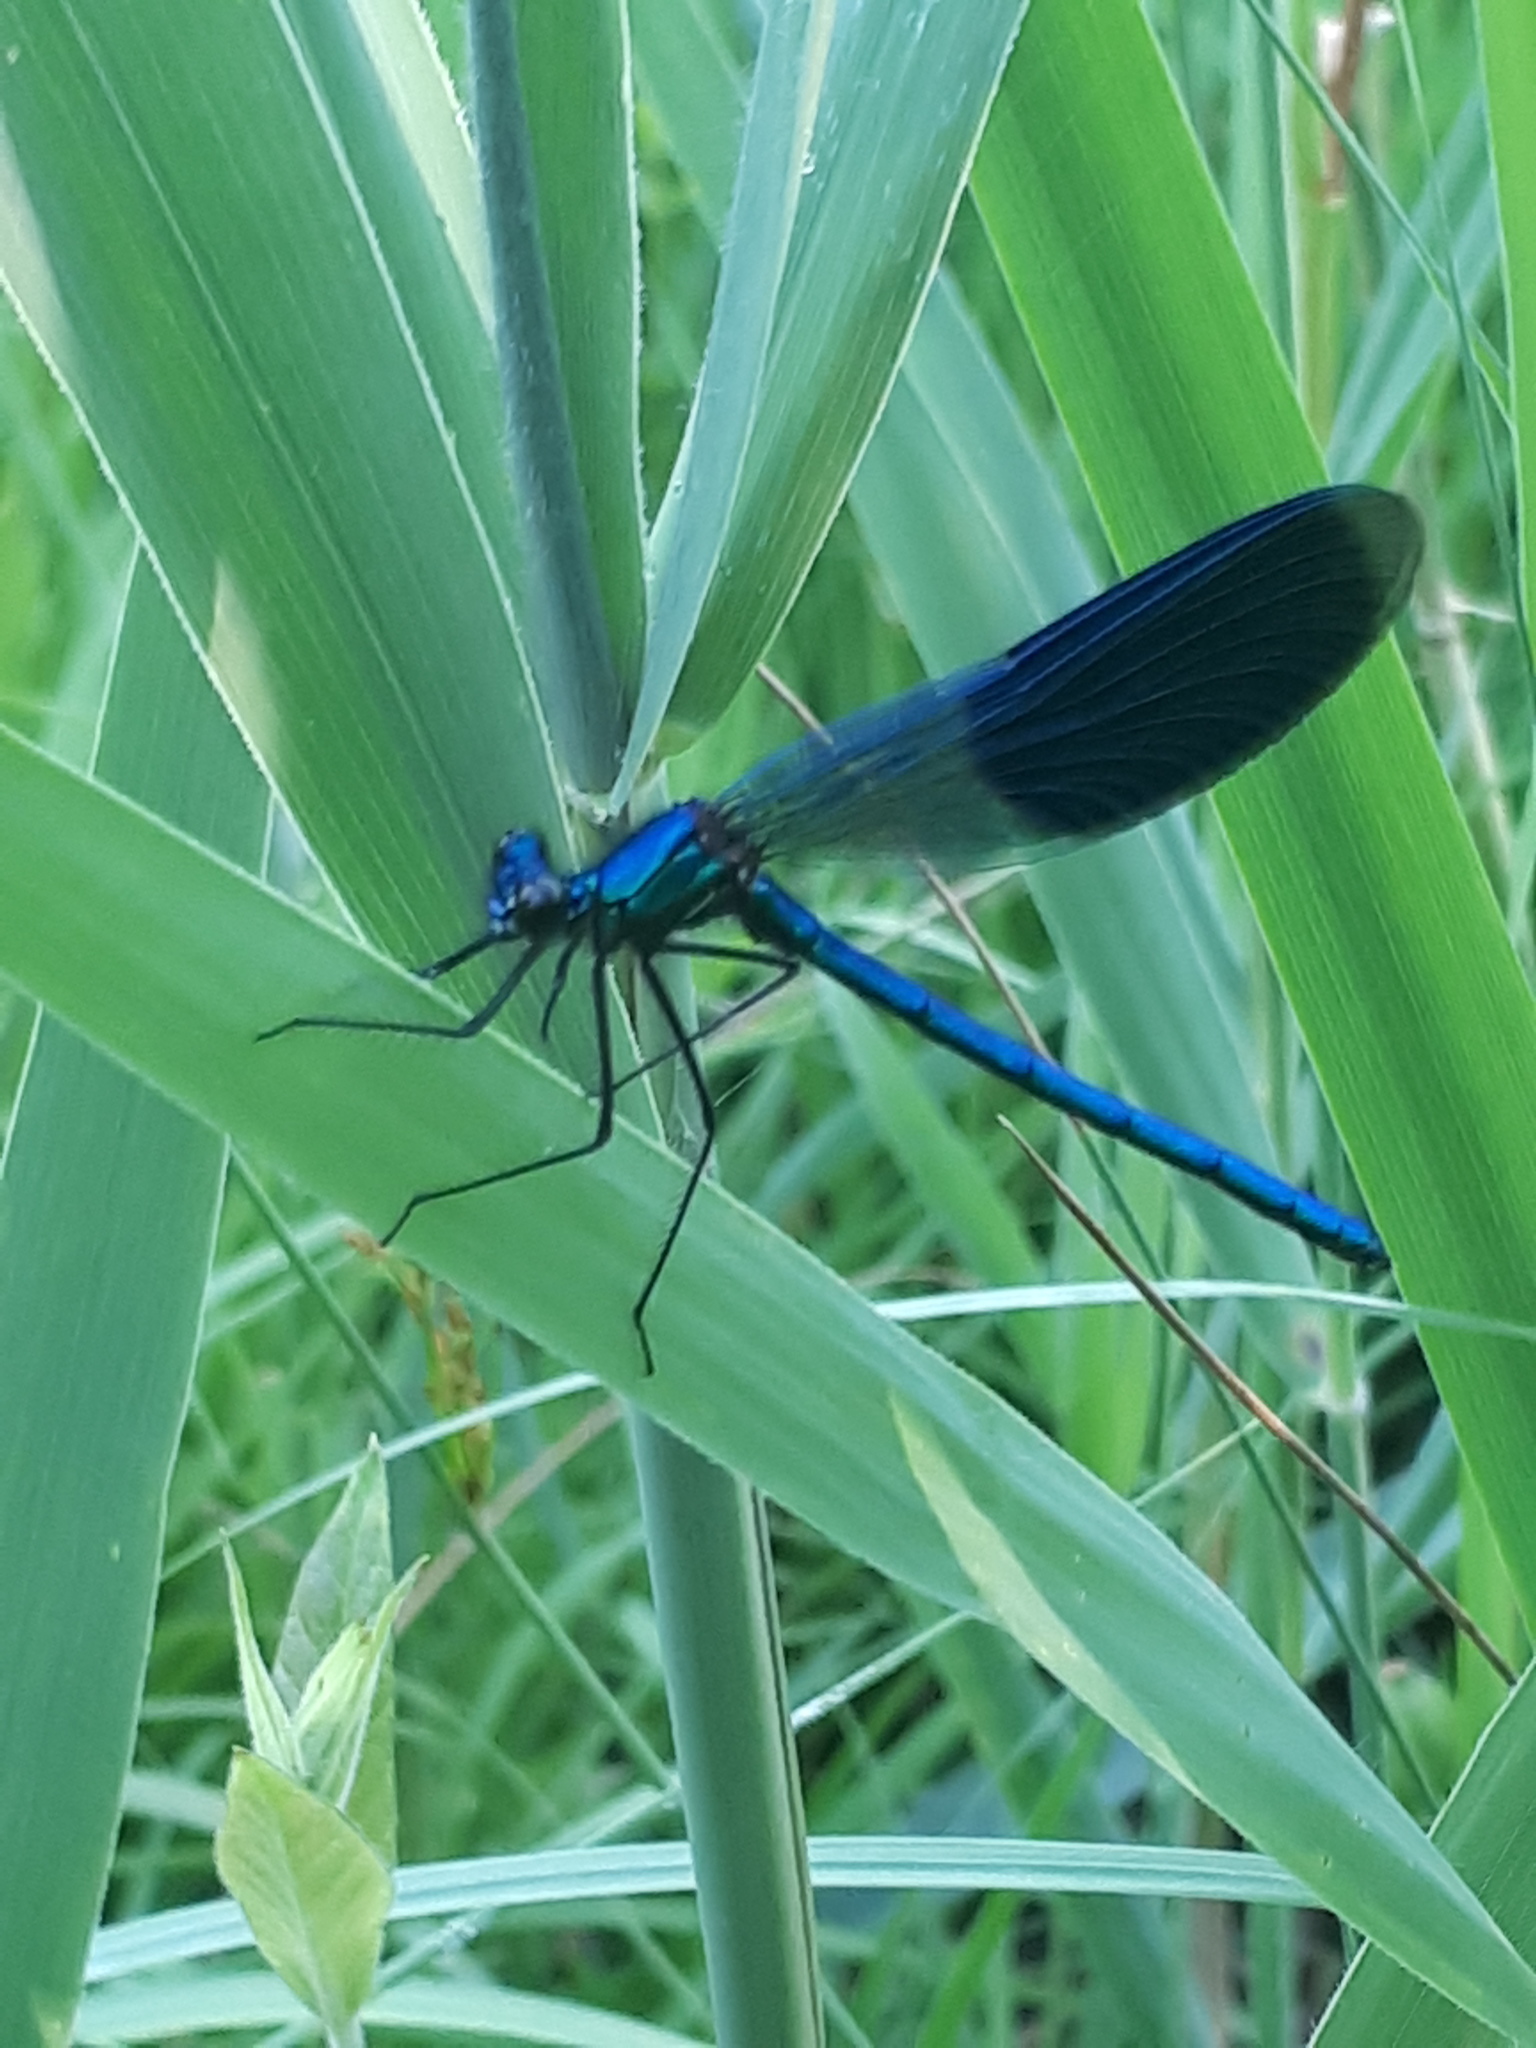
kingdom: Animalia
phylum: Arthropoda
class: Insecta
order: Odonata
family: Calopterygidae
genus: Calopteryx
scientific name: Calopteryx splendens
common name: Banded demoiselle
